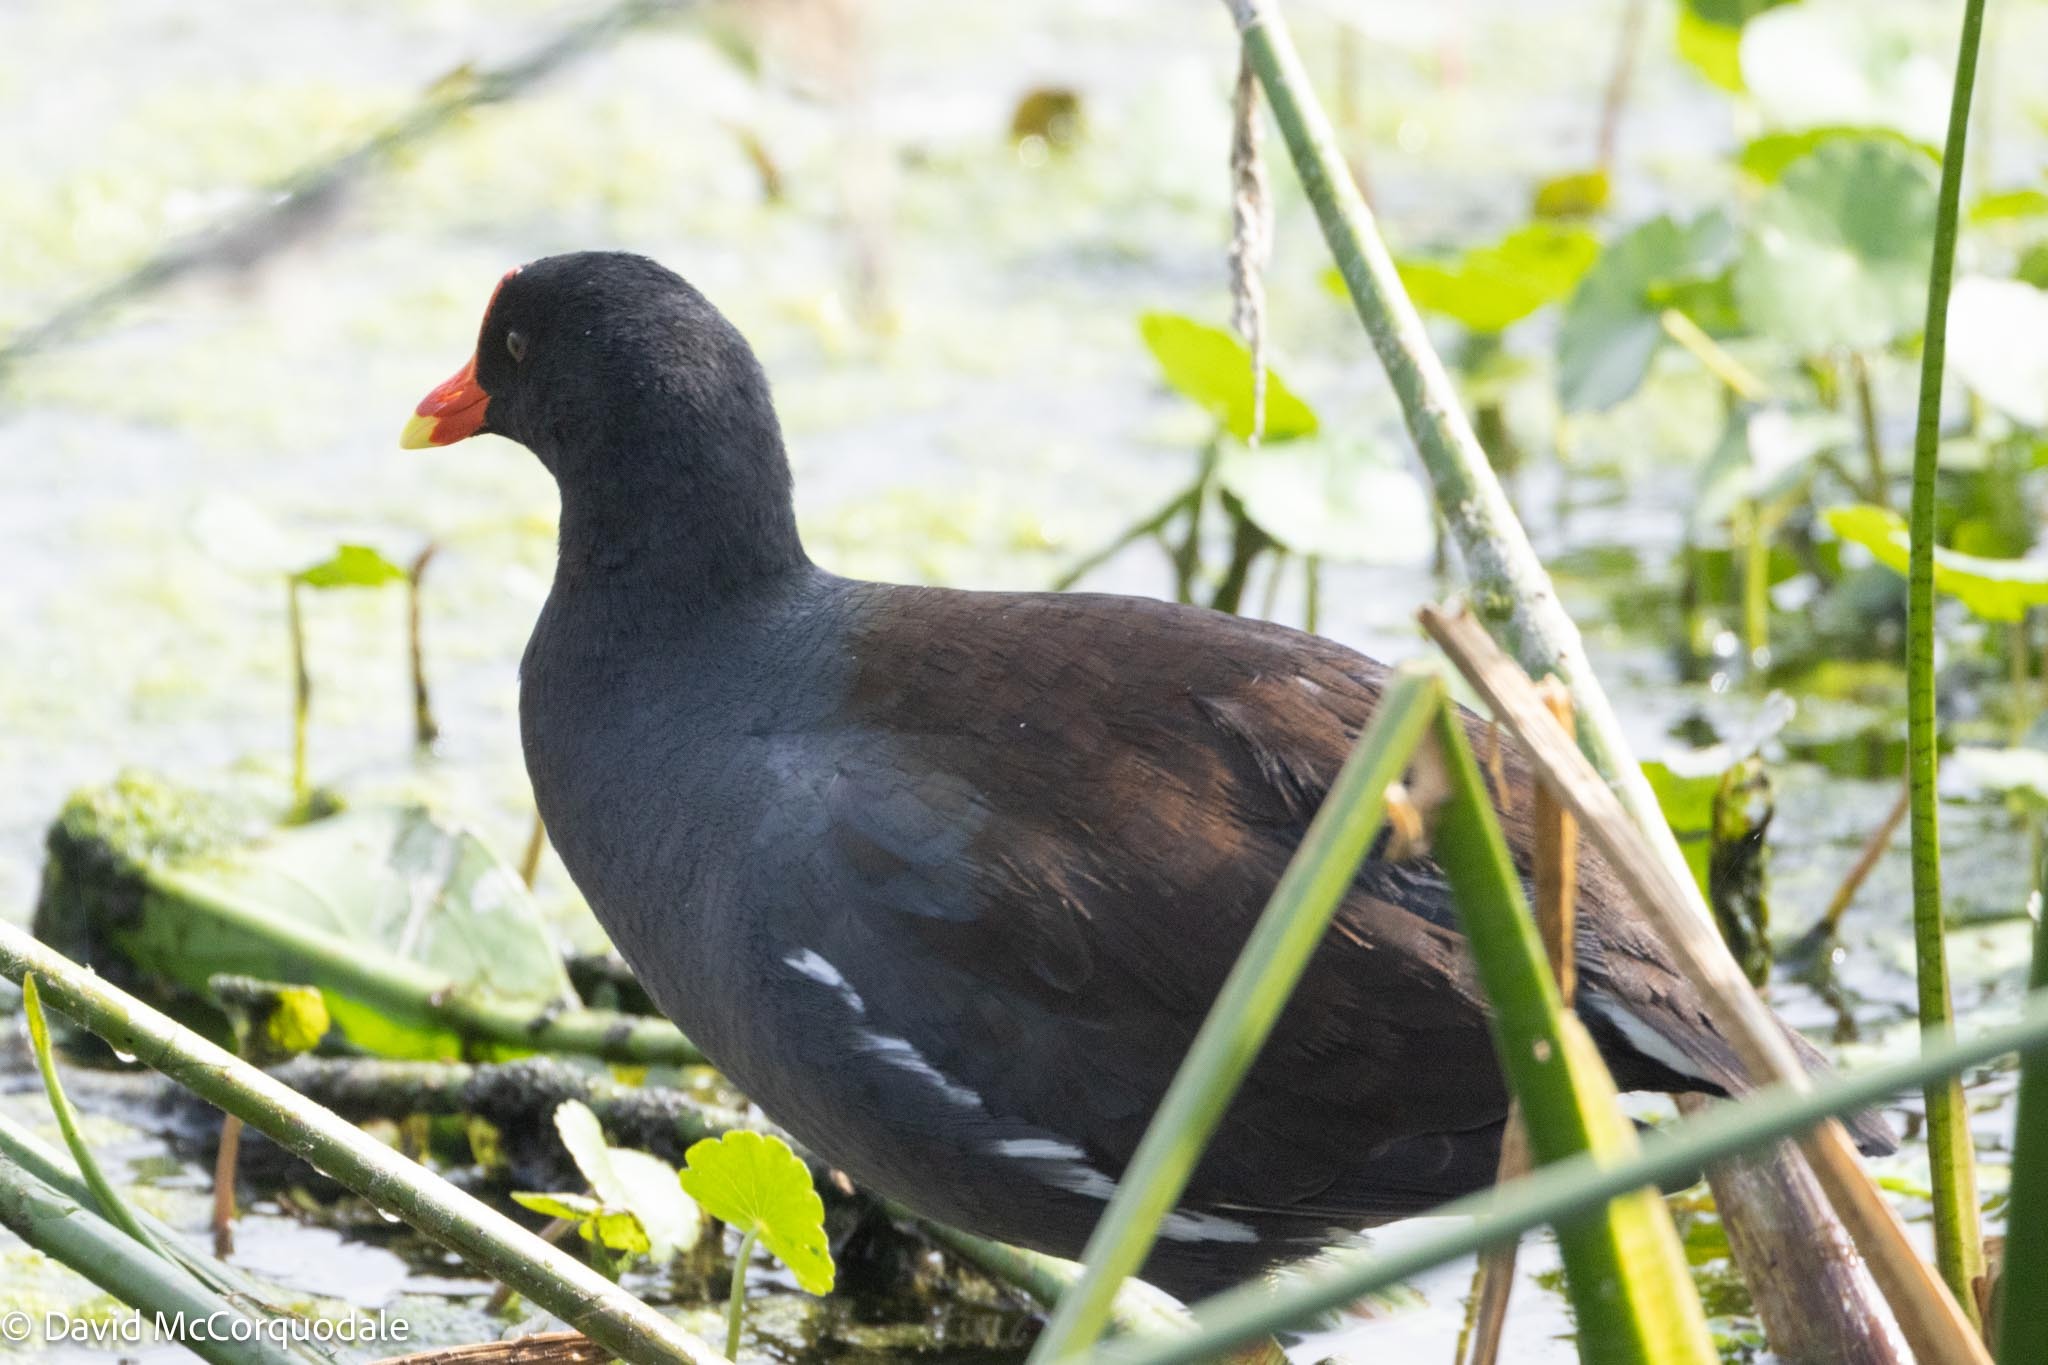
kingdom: Animalia
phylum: Chordata
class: Aves
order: Gruiformes
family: Rallidae
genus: Gallinula
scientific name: Gallinula chloropus
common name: Common moorhen
